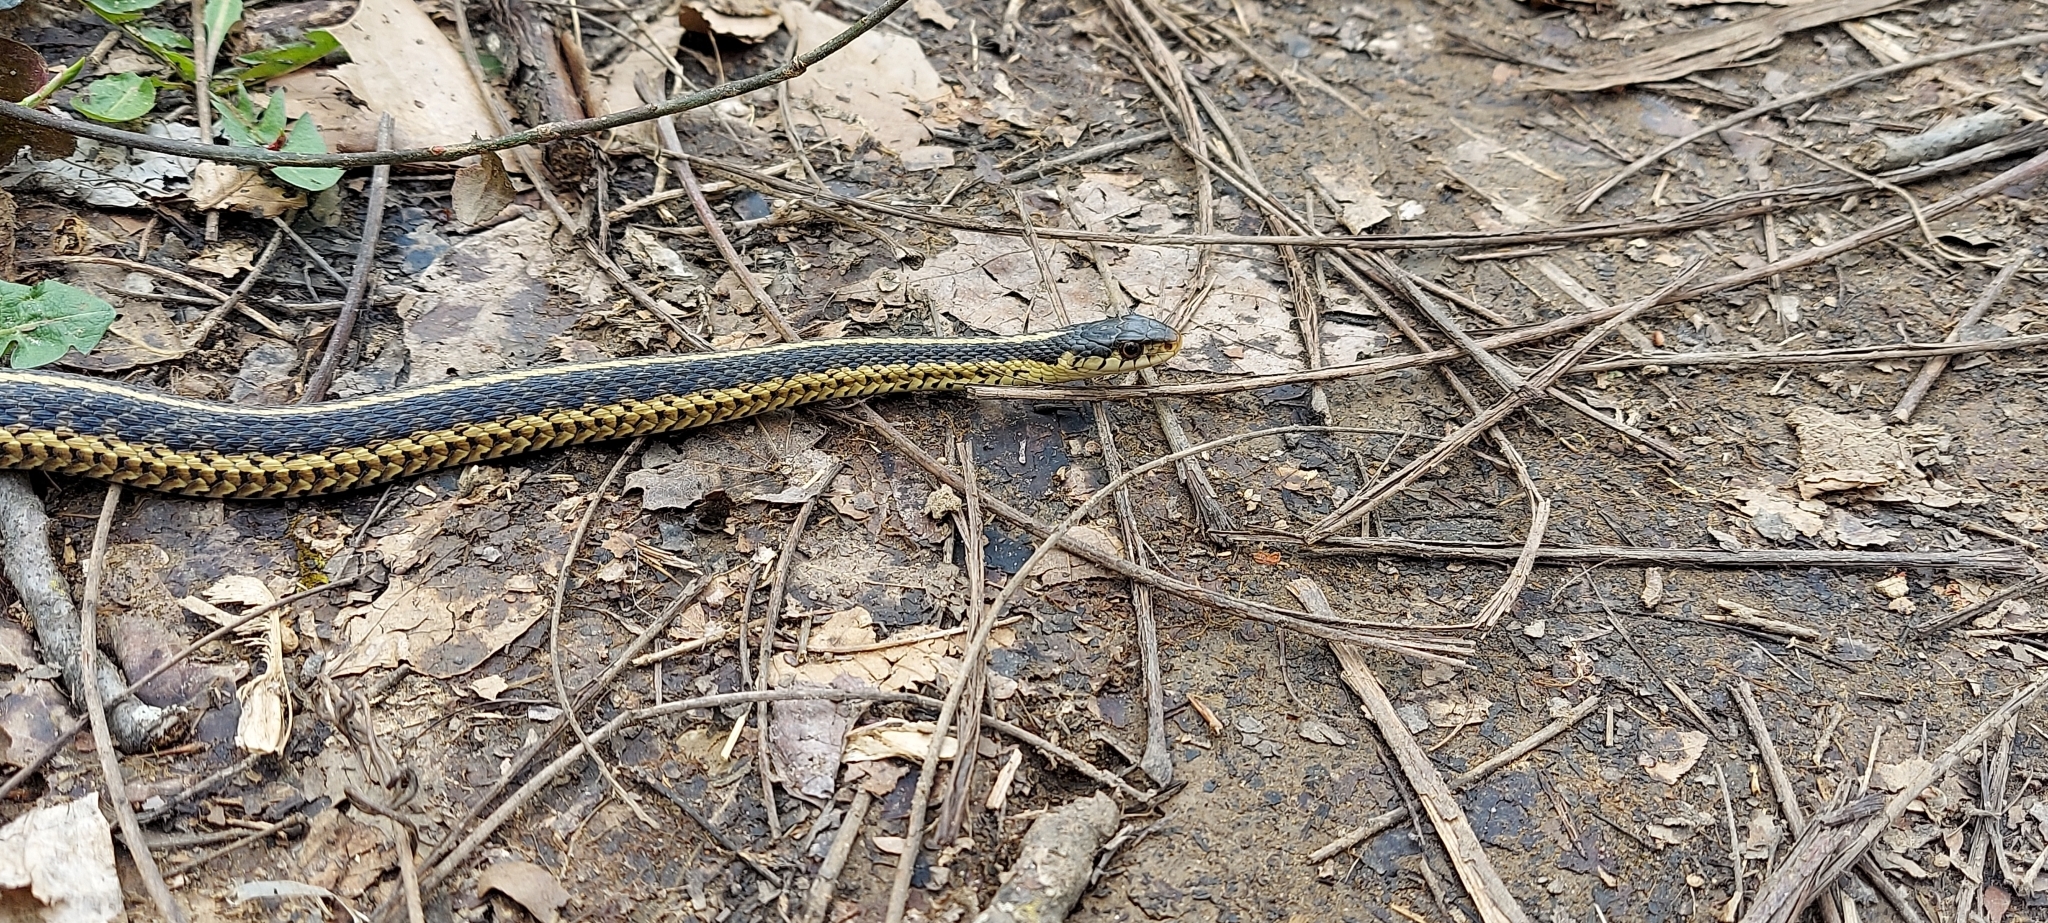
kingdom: Animalia
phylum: Chordata
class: Squamata
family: Colubridae
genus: Thamnophis
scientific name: Thamnophis sirtalis
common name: Common garter snake
